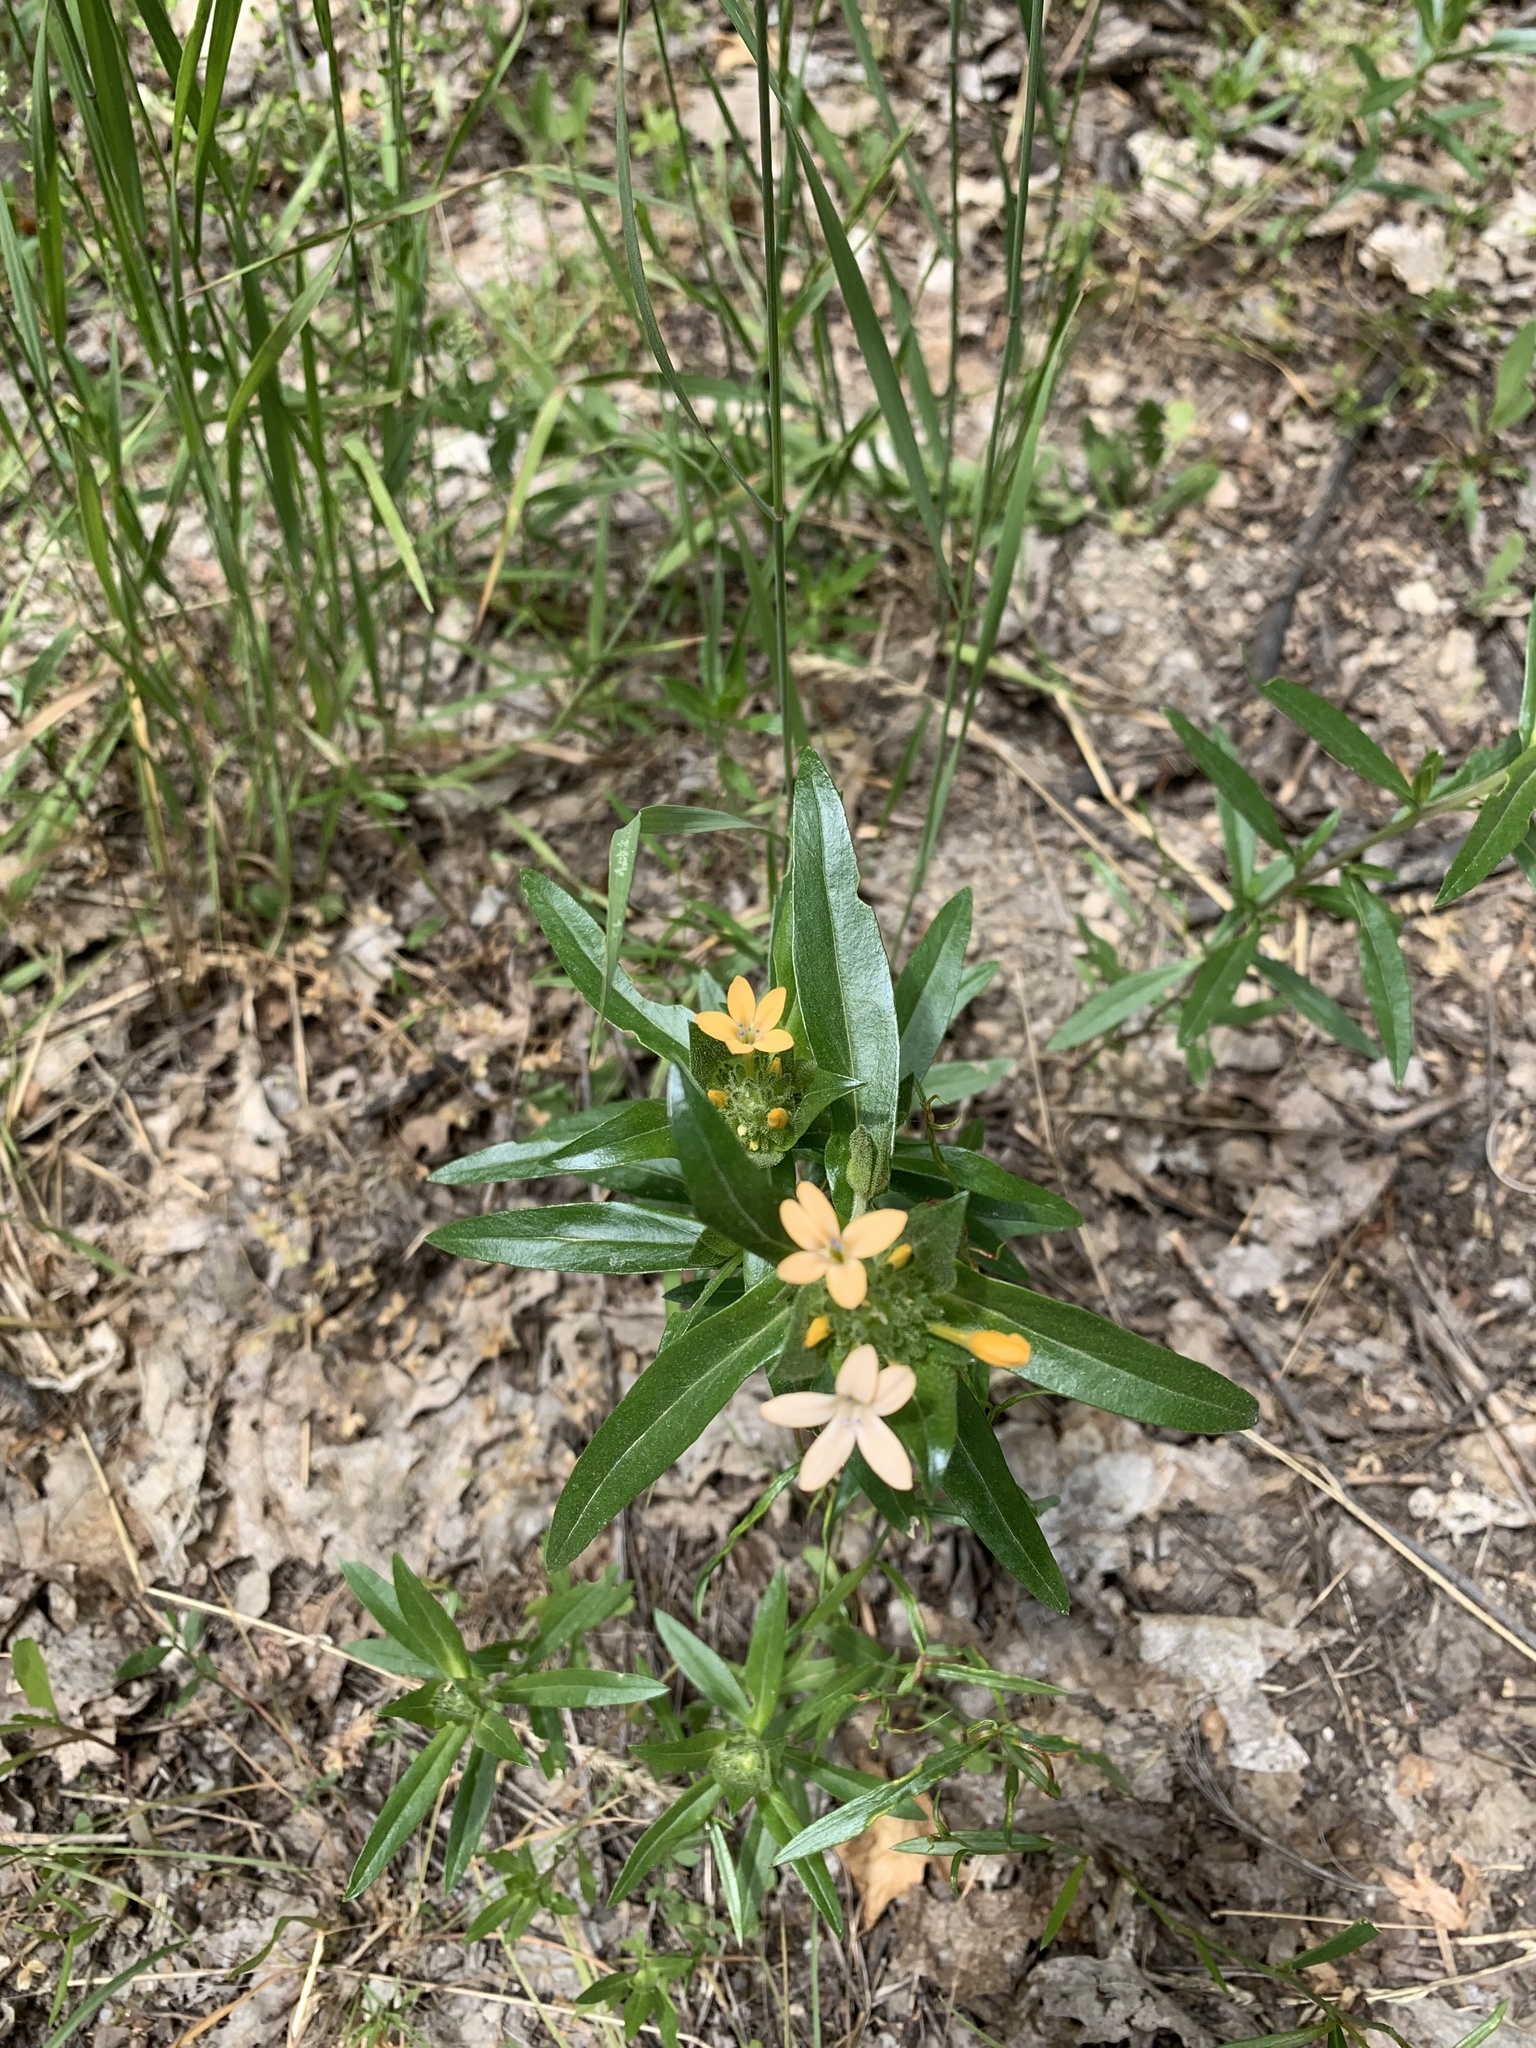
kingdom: Plantae
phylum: Tracheophyta
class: Magnoliopsida
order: Ericales
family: Polemoniaceae
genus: Collomia
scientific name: Collomia grandiflora
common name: California strawflower
